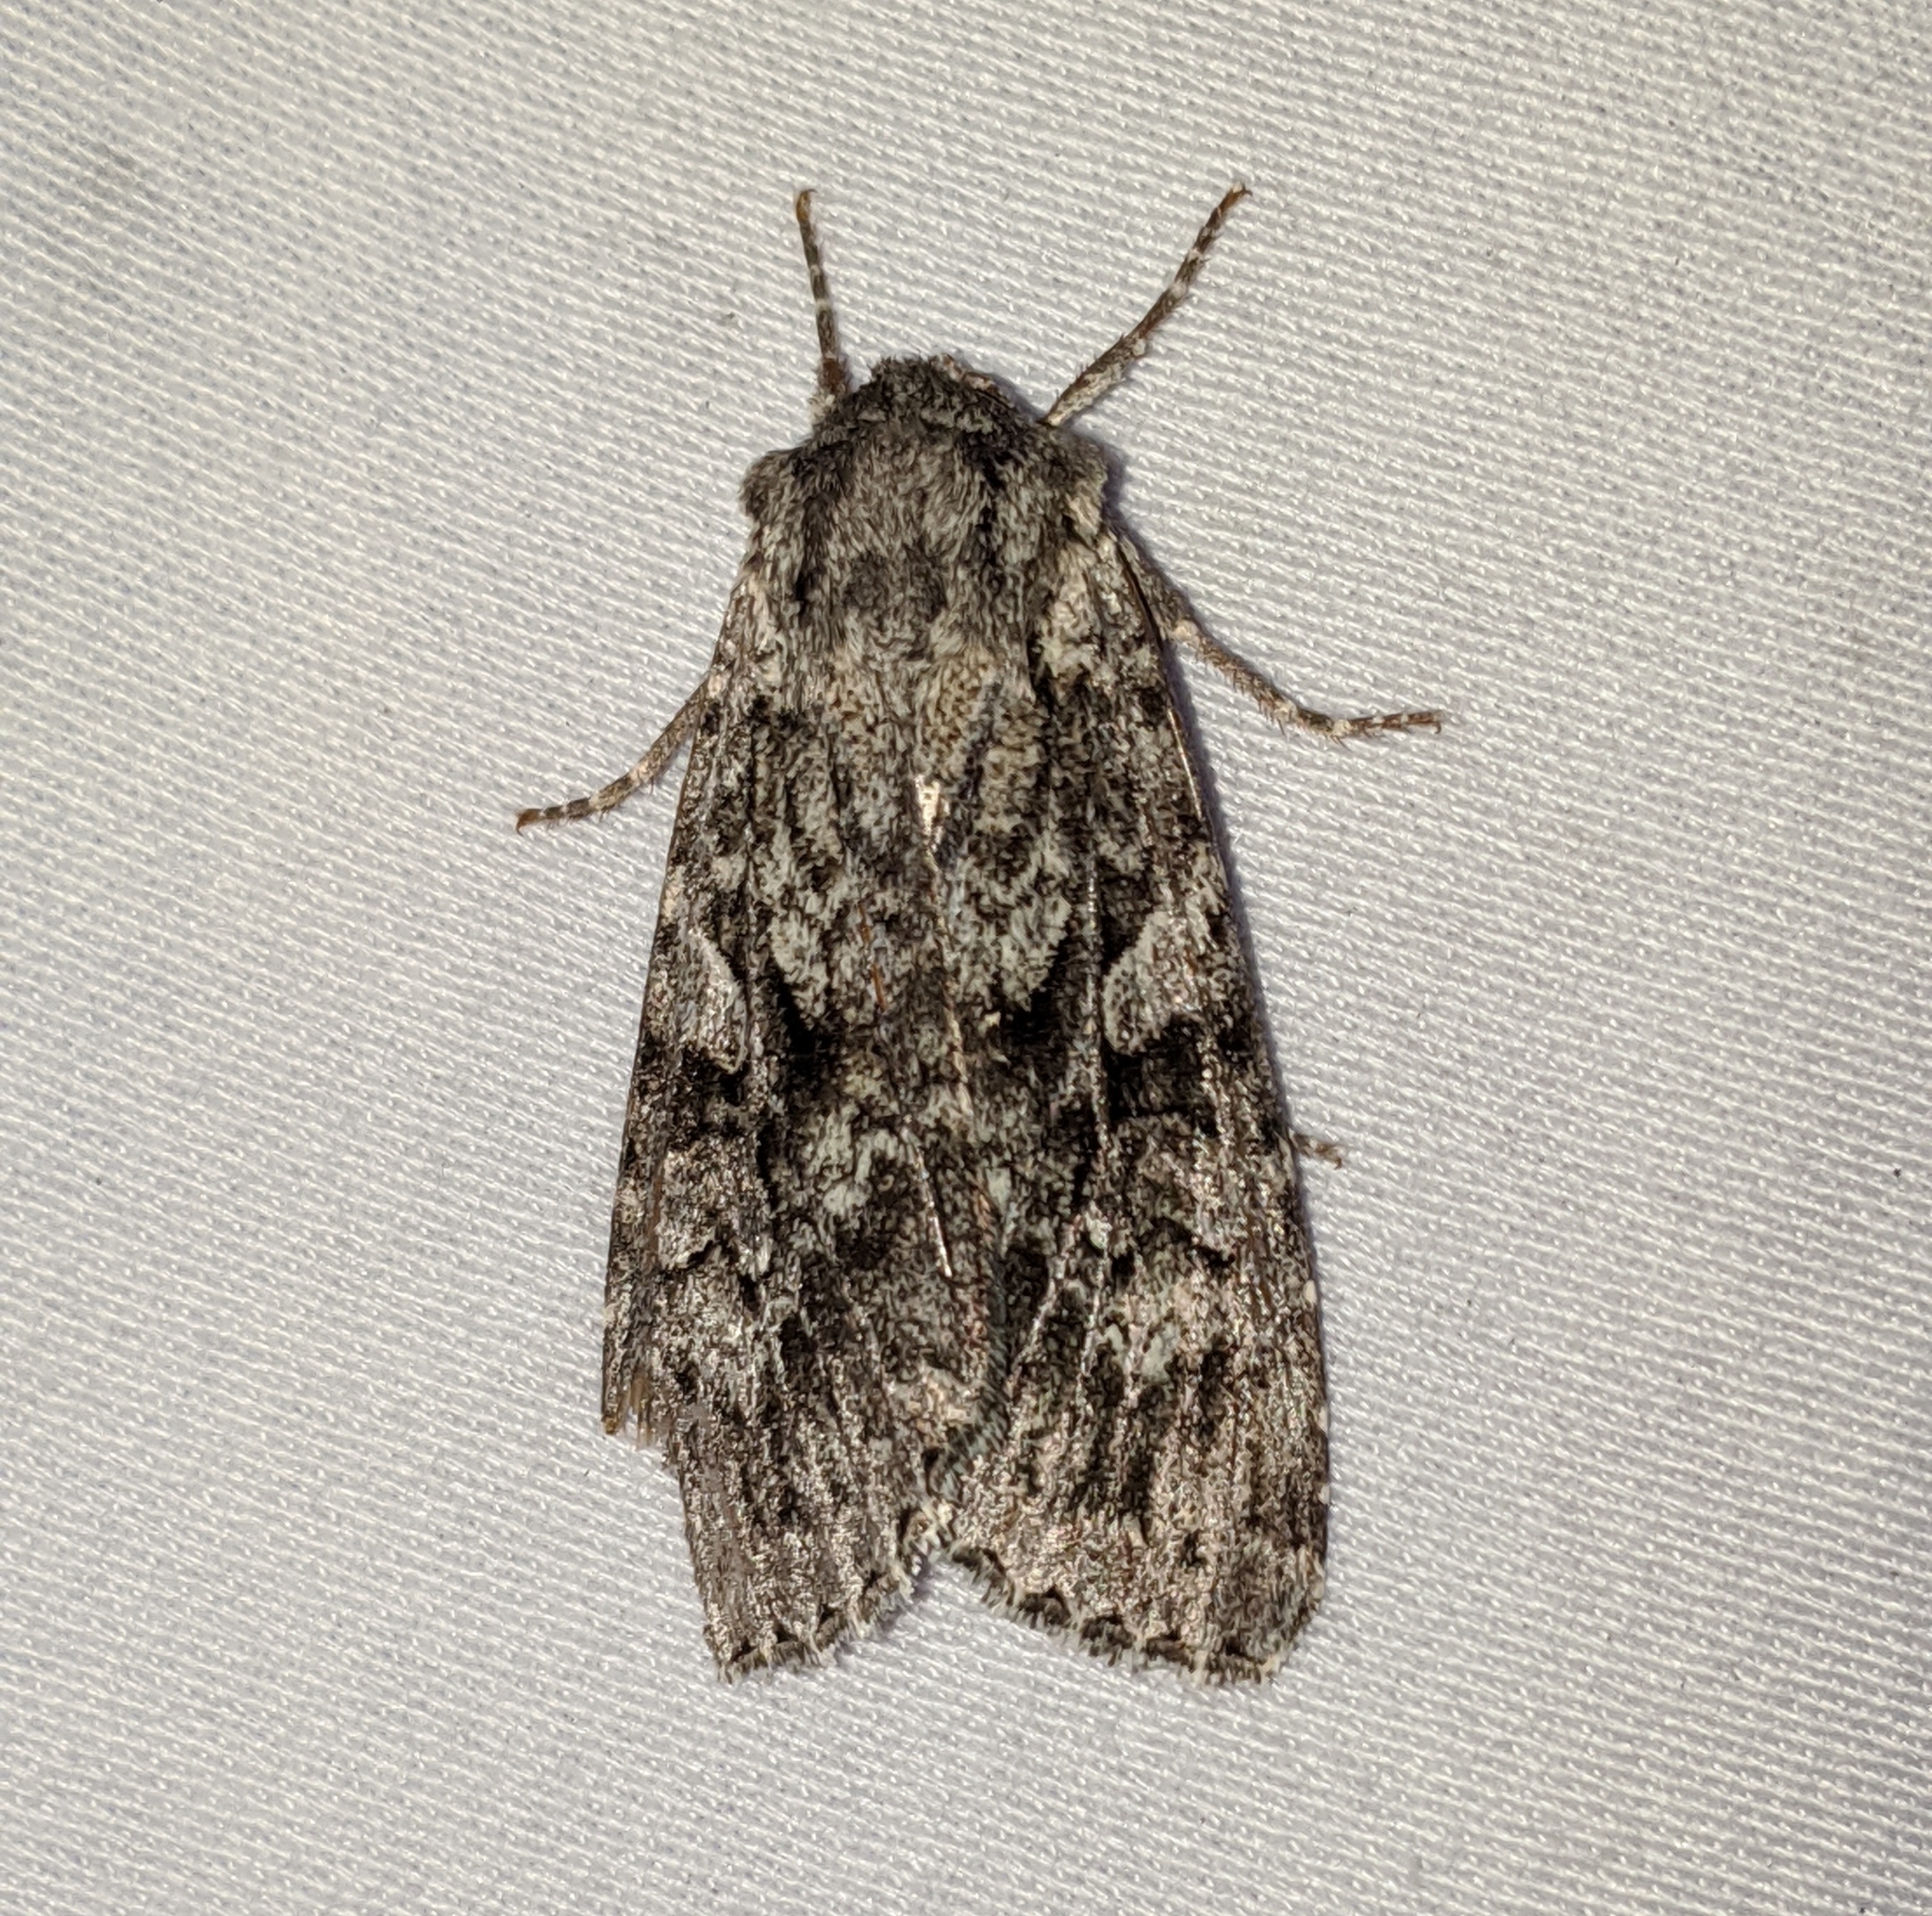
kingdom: Animalia
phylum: Arthropoda
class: Insecta
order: Lepidoptera
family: Noctuidae
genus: Eurois
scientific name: Eurois occulta
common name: Great brocade
